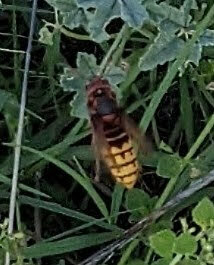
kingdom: Animalia
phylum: Arthropoda
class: Insecta
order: Hymenoptera
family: Vespidae
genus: Vespa
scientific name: Vespa crabro
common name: Hornet
